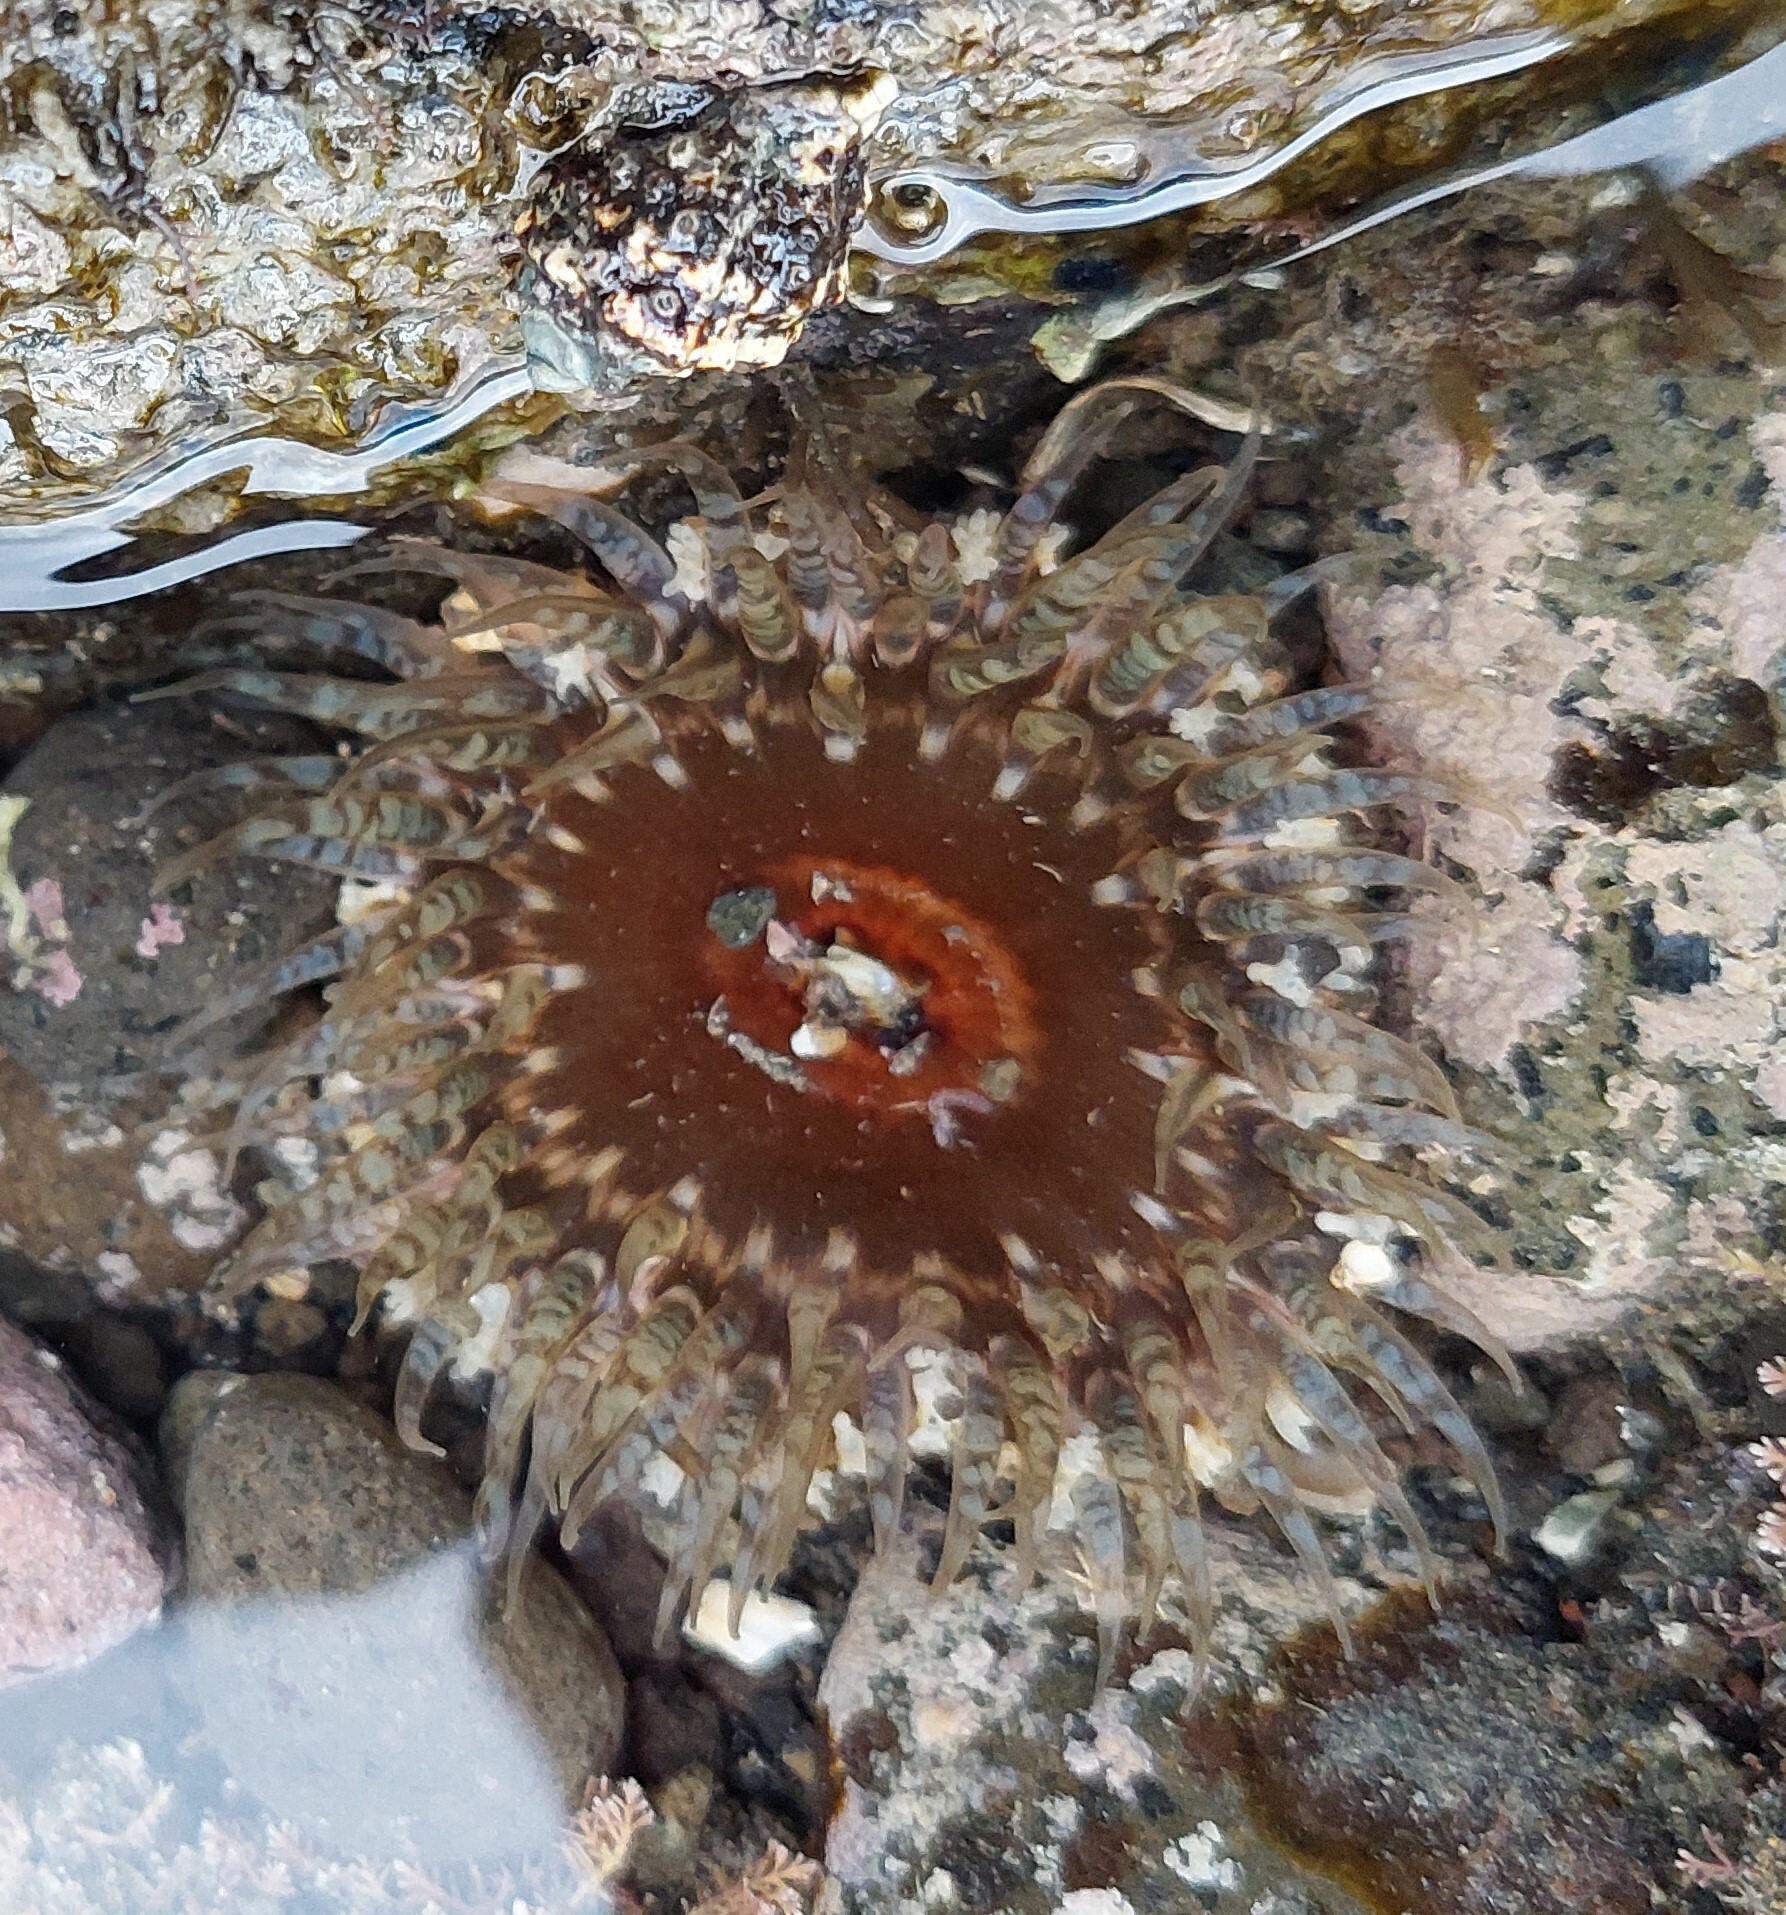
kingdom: Animalia
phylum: Cnidaria
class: Anthozoa
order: Actiniaria
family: Actiniidae
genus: Oulactis
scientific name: Oulactis muscosa
